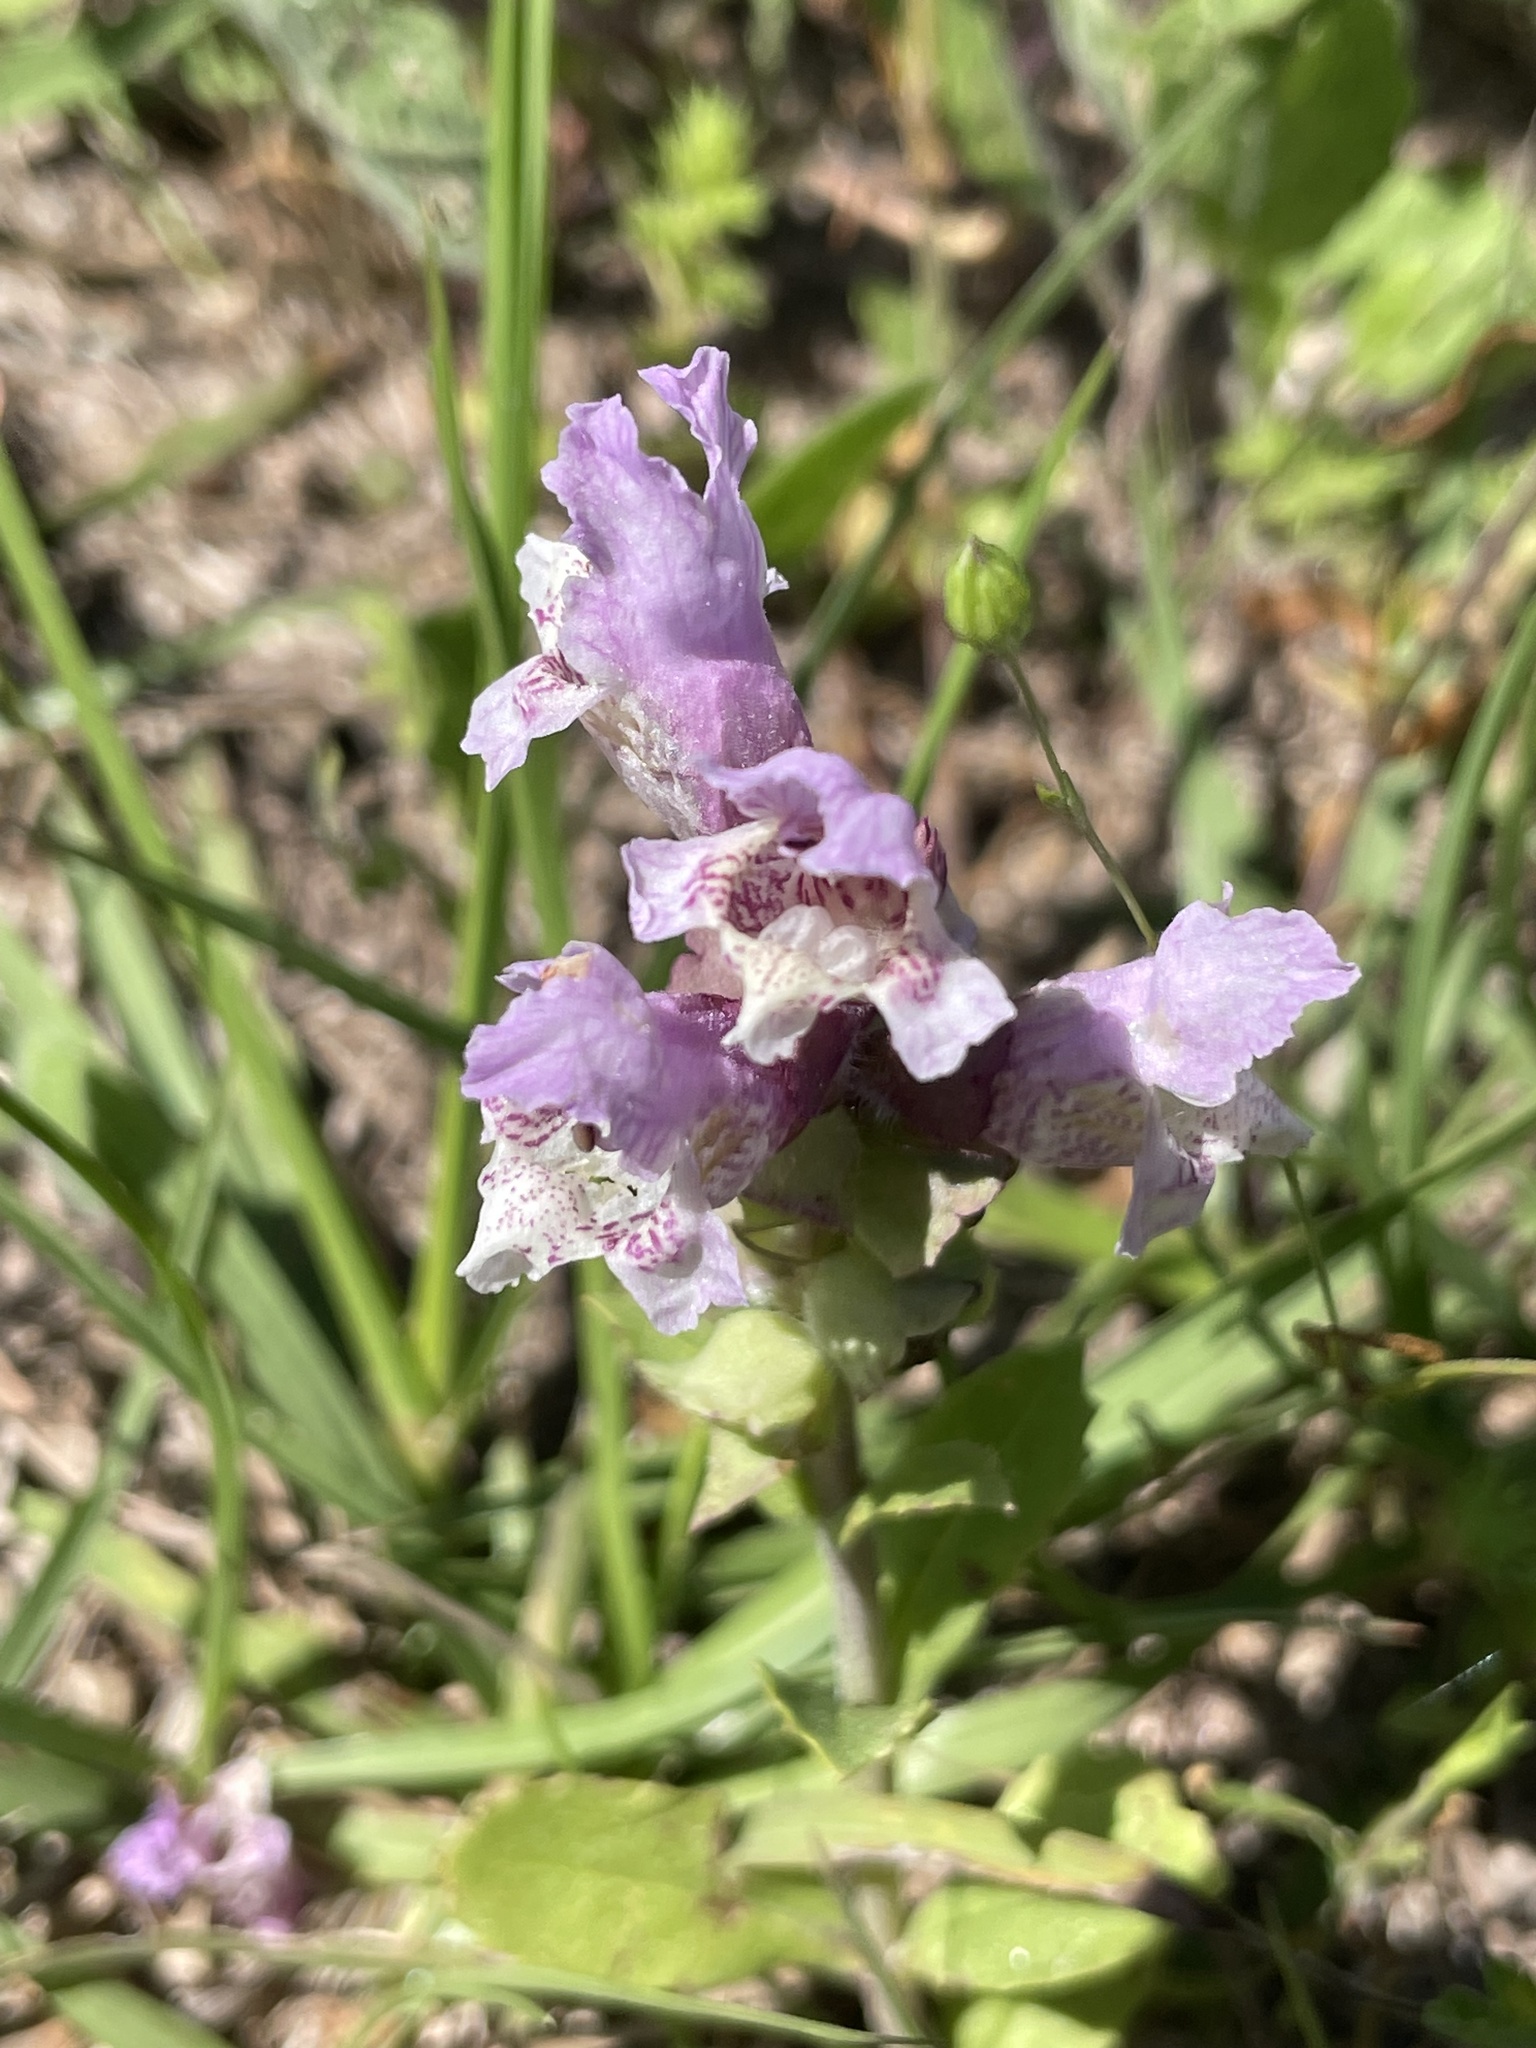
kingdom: Plantae
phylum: Tracheophyta
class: Magnoliopsida
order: Lamiales
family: Lamiaceae
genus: Brazoria
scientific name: Brazoria truncata
